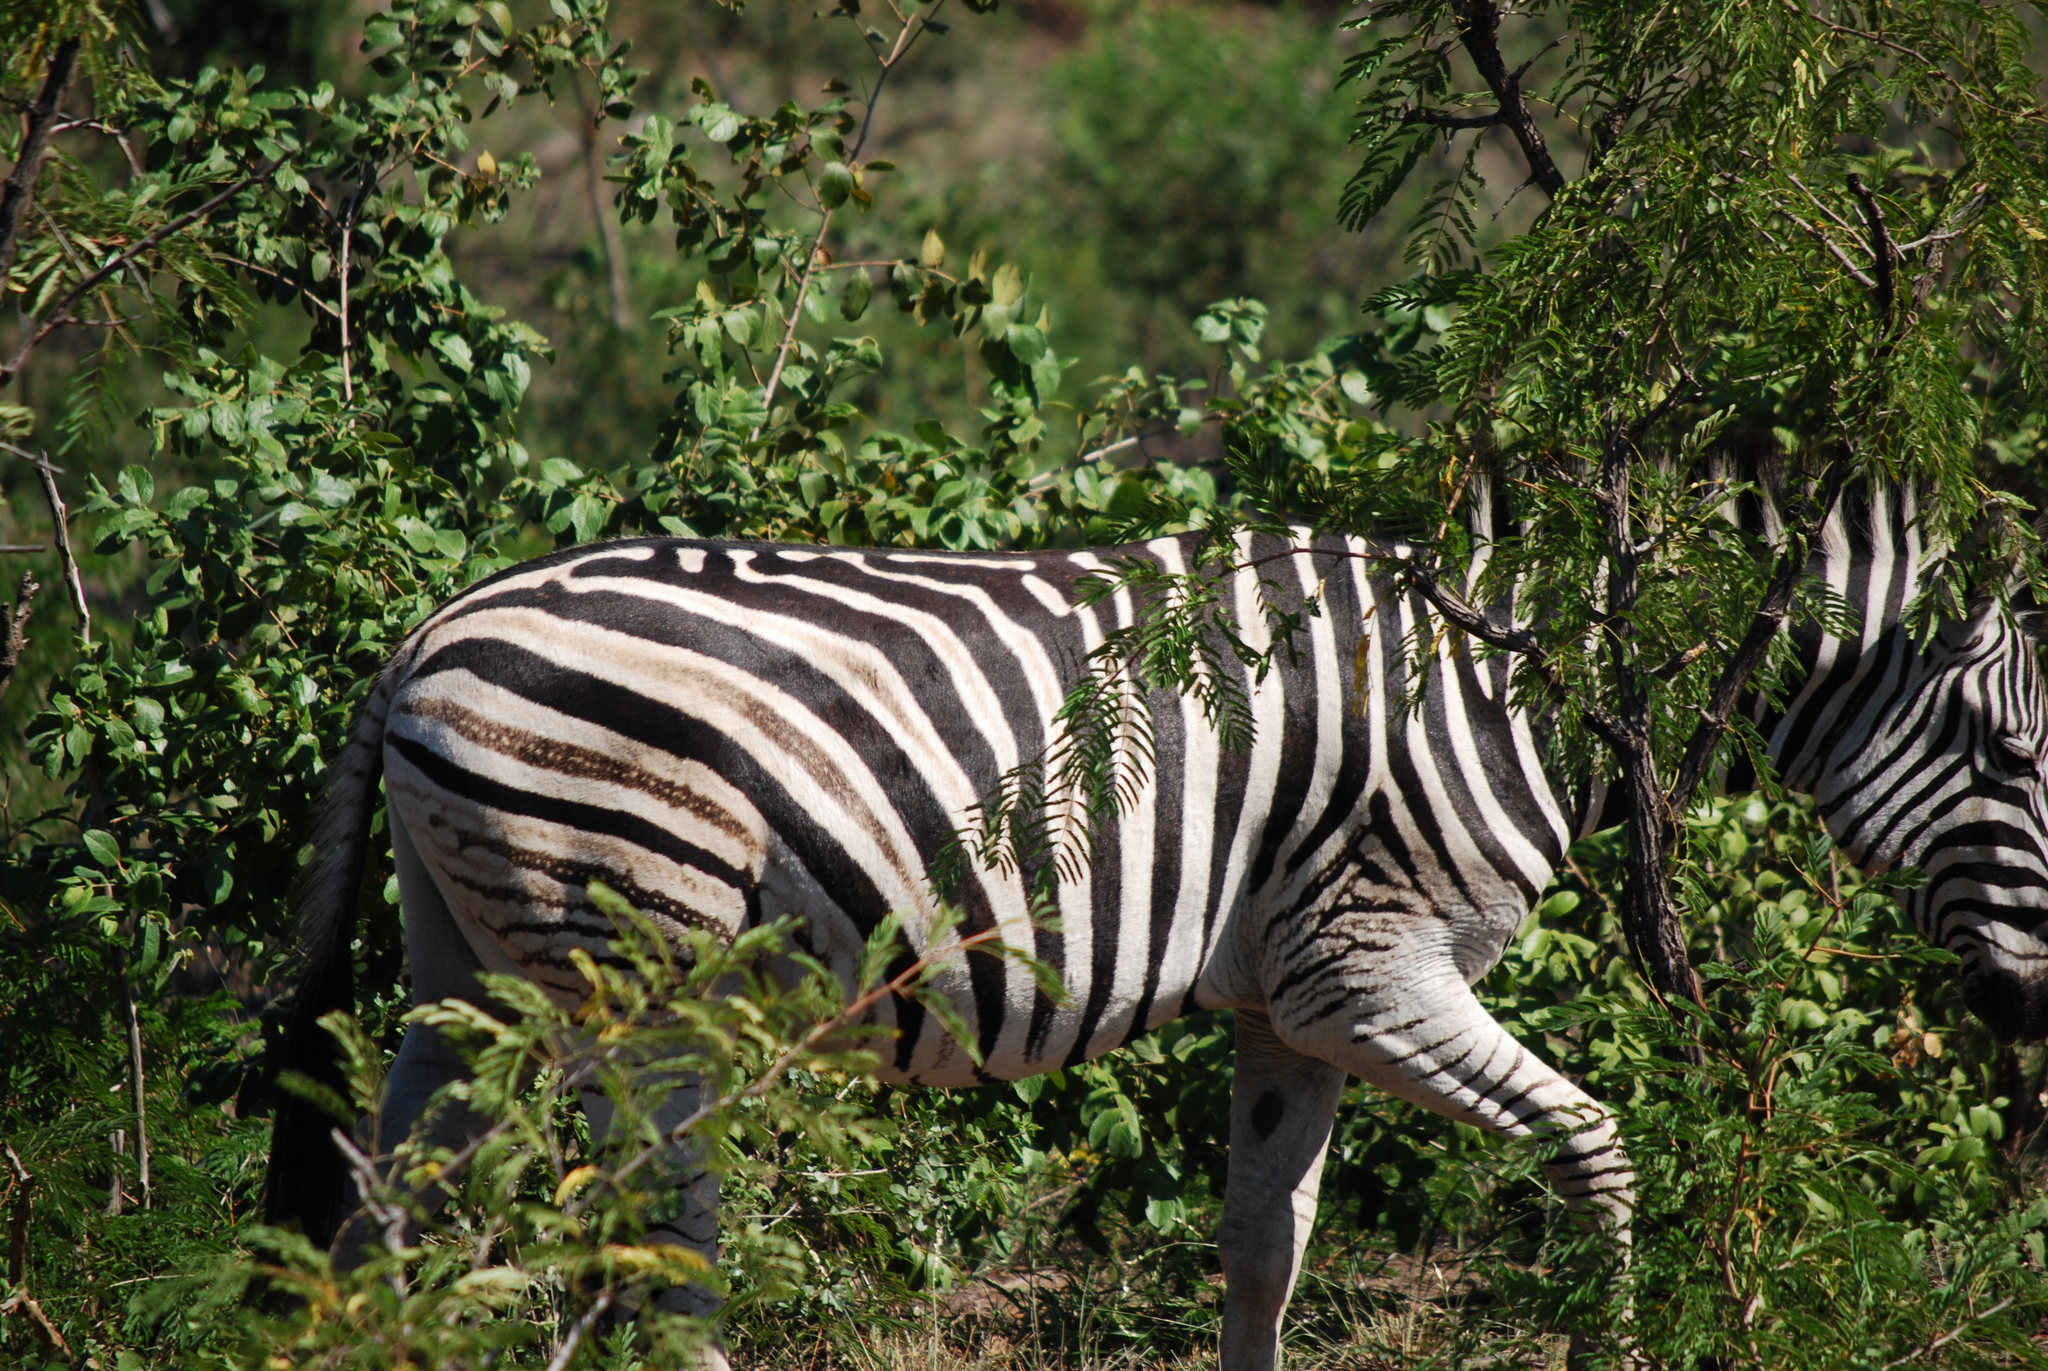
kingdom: Animalia
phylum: Chordata
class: Mammalia
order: Perissodactyla
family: Equidae
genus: Equus
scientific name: Equus quagga
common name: Plains zebra
